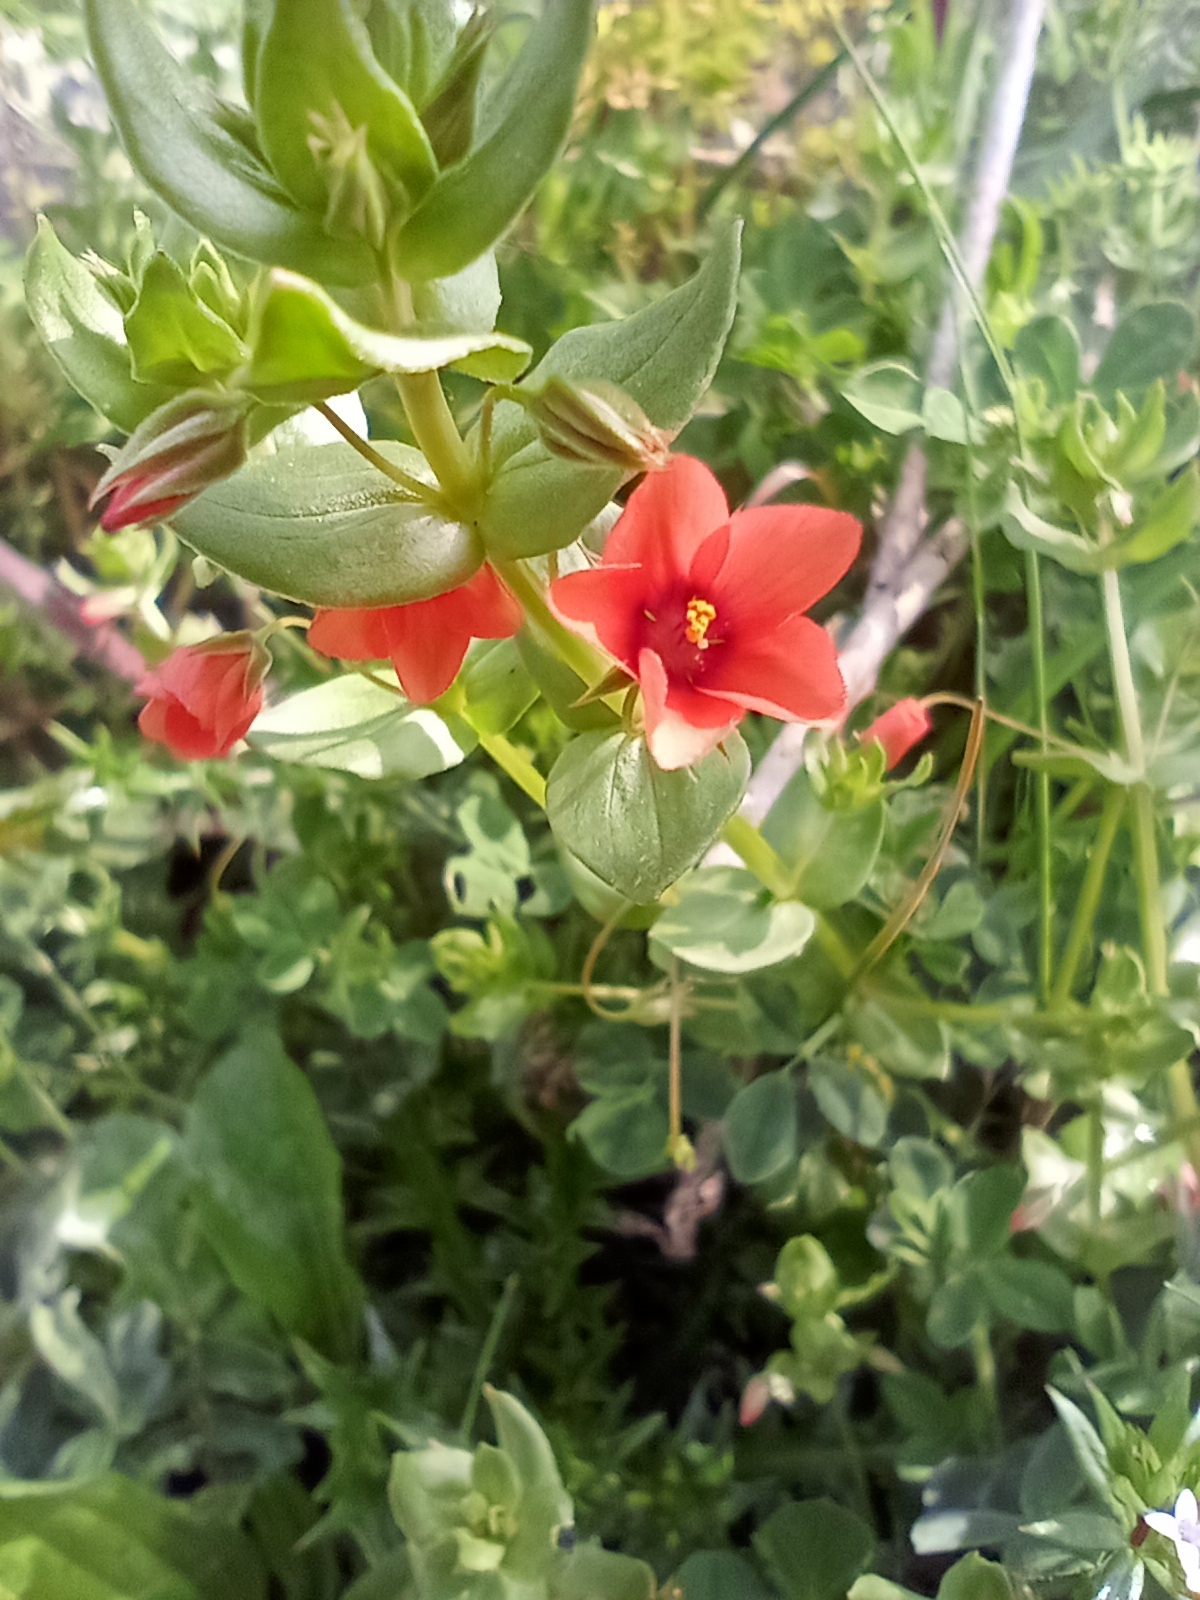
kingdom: Plantae
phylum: Tracheophyta
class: Magnoliopsida
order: Ericales
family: Primulaceae
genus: Lysimachia
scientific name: Lysimachia arvensis
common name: Scarlet pimpernel
